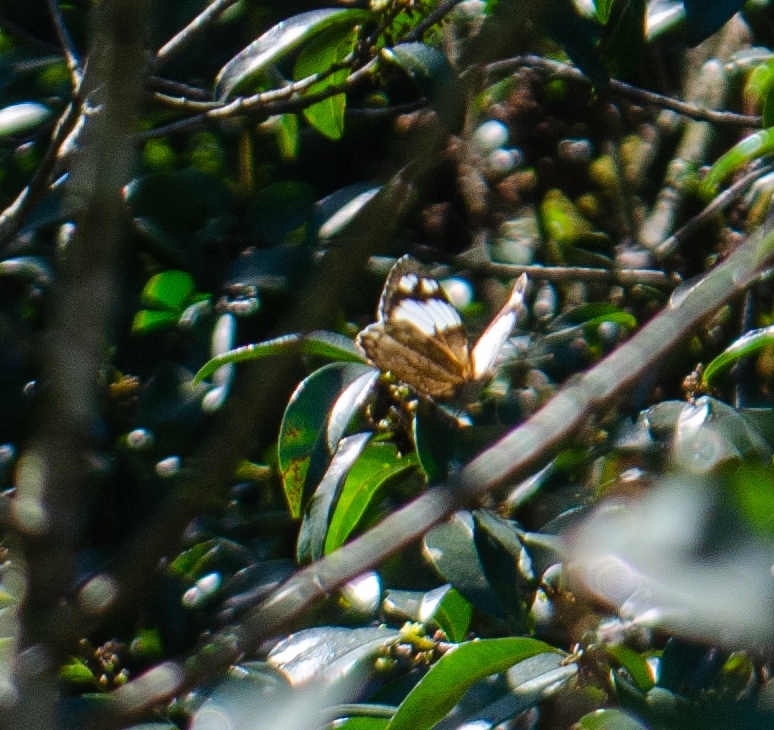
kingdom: Animalia
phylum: Arthropoda
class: Insecta
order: Lepidoptera
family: Nymphalidae
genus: Eunica
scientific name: Eunica eburnea
